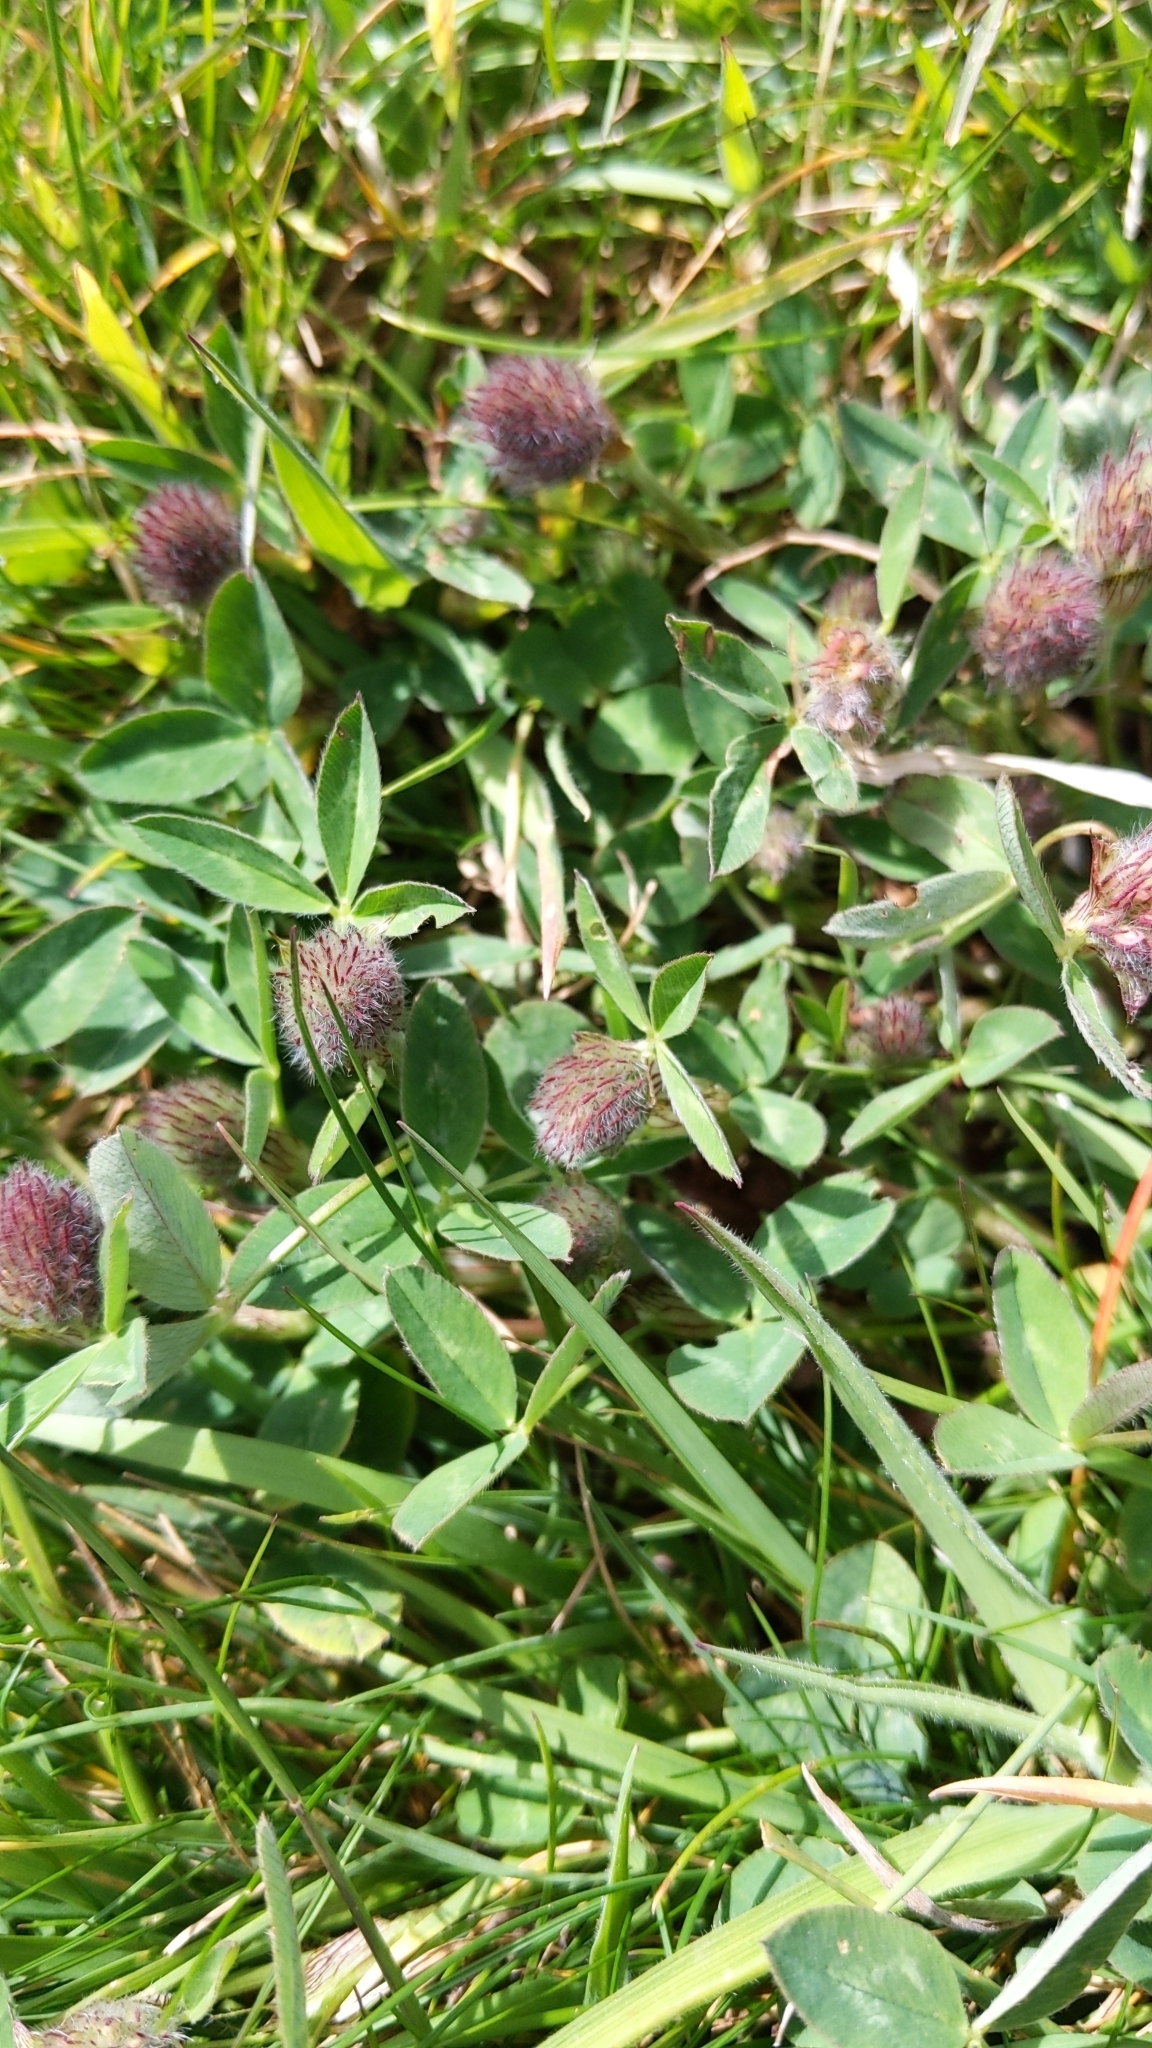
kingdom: Plantae
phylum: Tracheophyta
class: Magnoliopsida
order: Fabales
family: Fabaceae
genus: Trifolium
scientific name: Trifolium pratense
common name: Red clover
